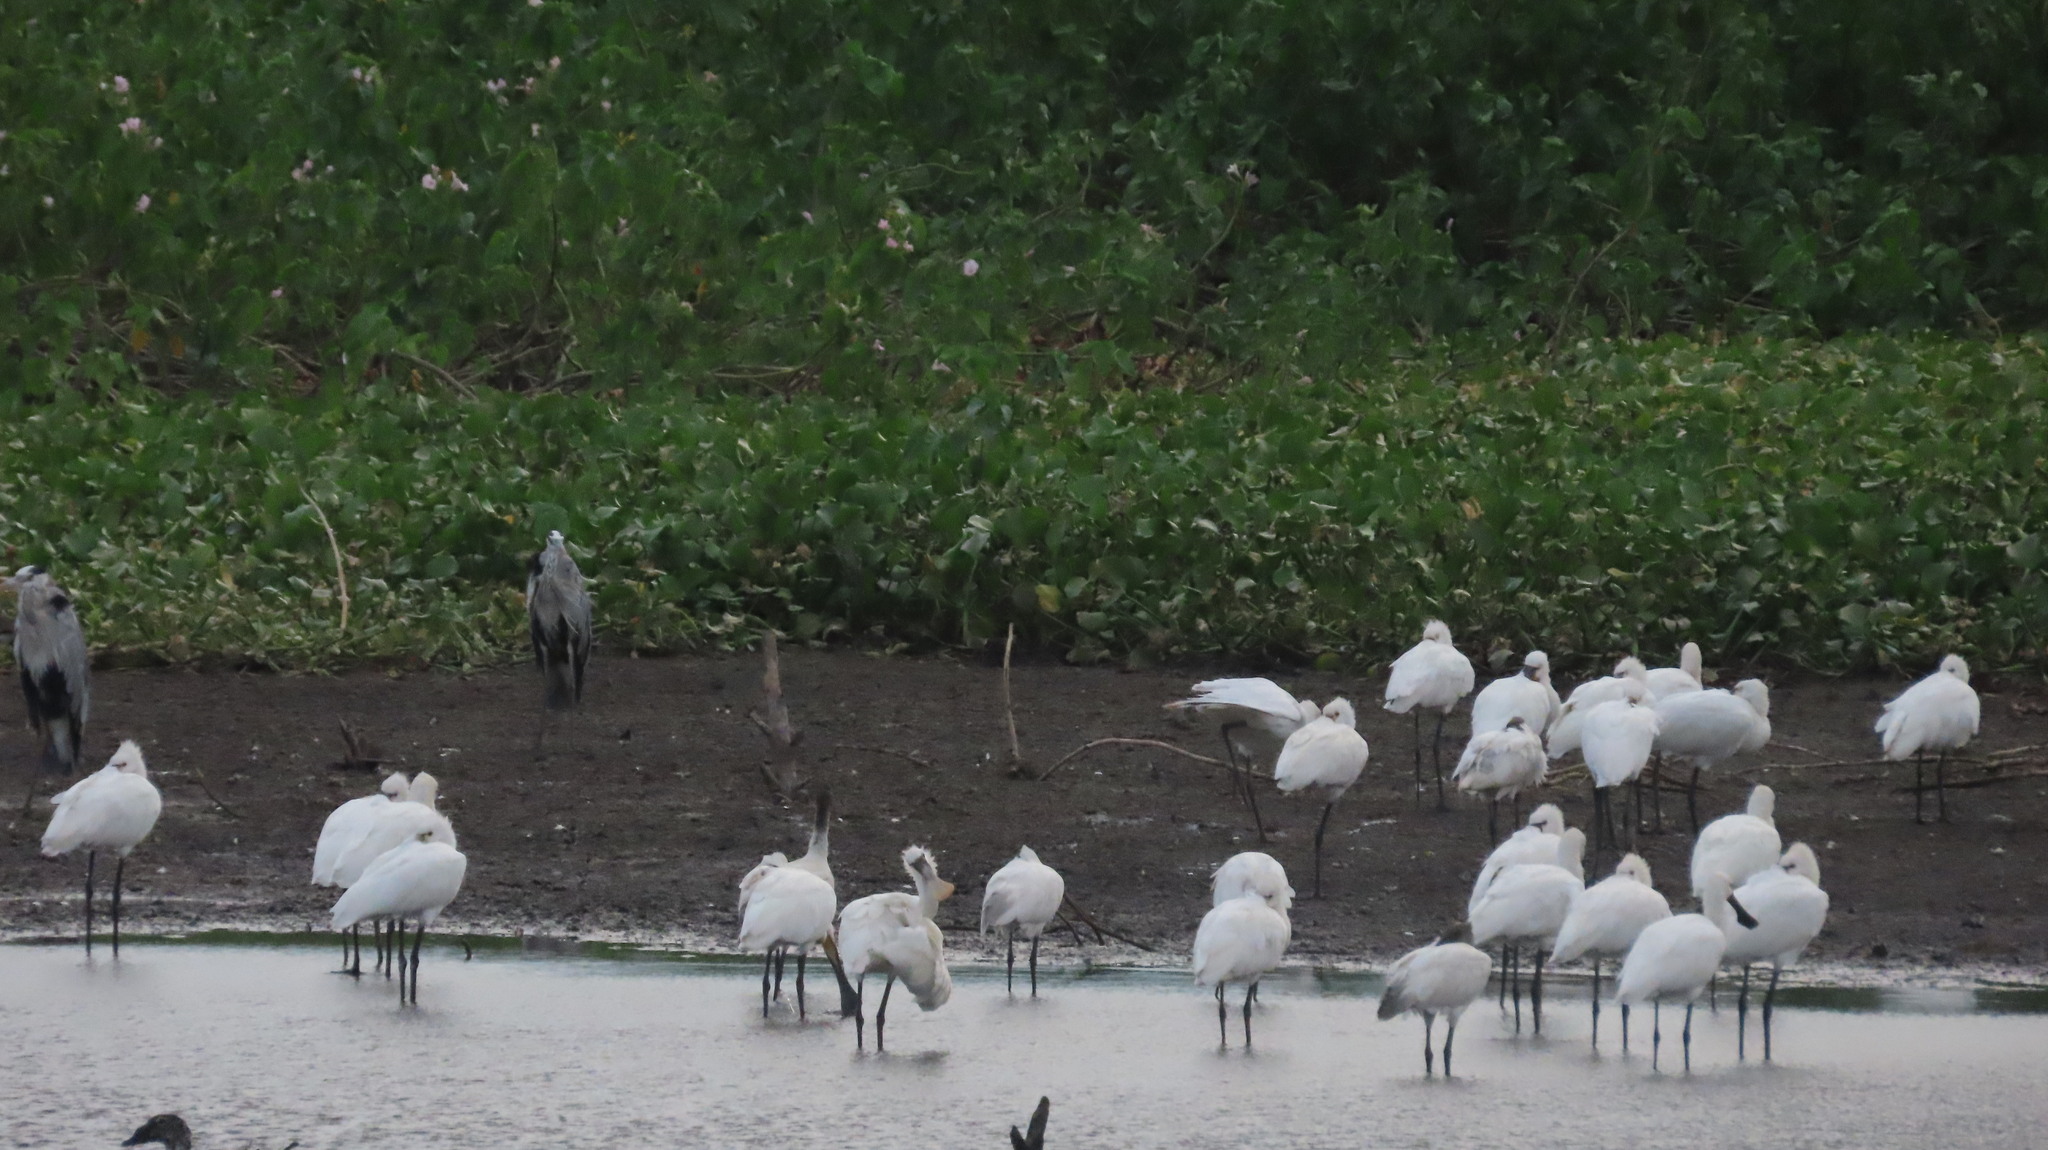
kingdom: Animalia
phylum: Chordata
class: Aves
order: Pelecaniformes
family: Ardeidae
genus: Ardea
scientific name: Ardea cinerea
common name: Grey heron
